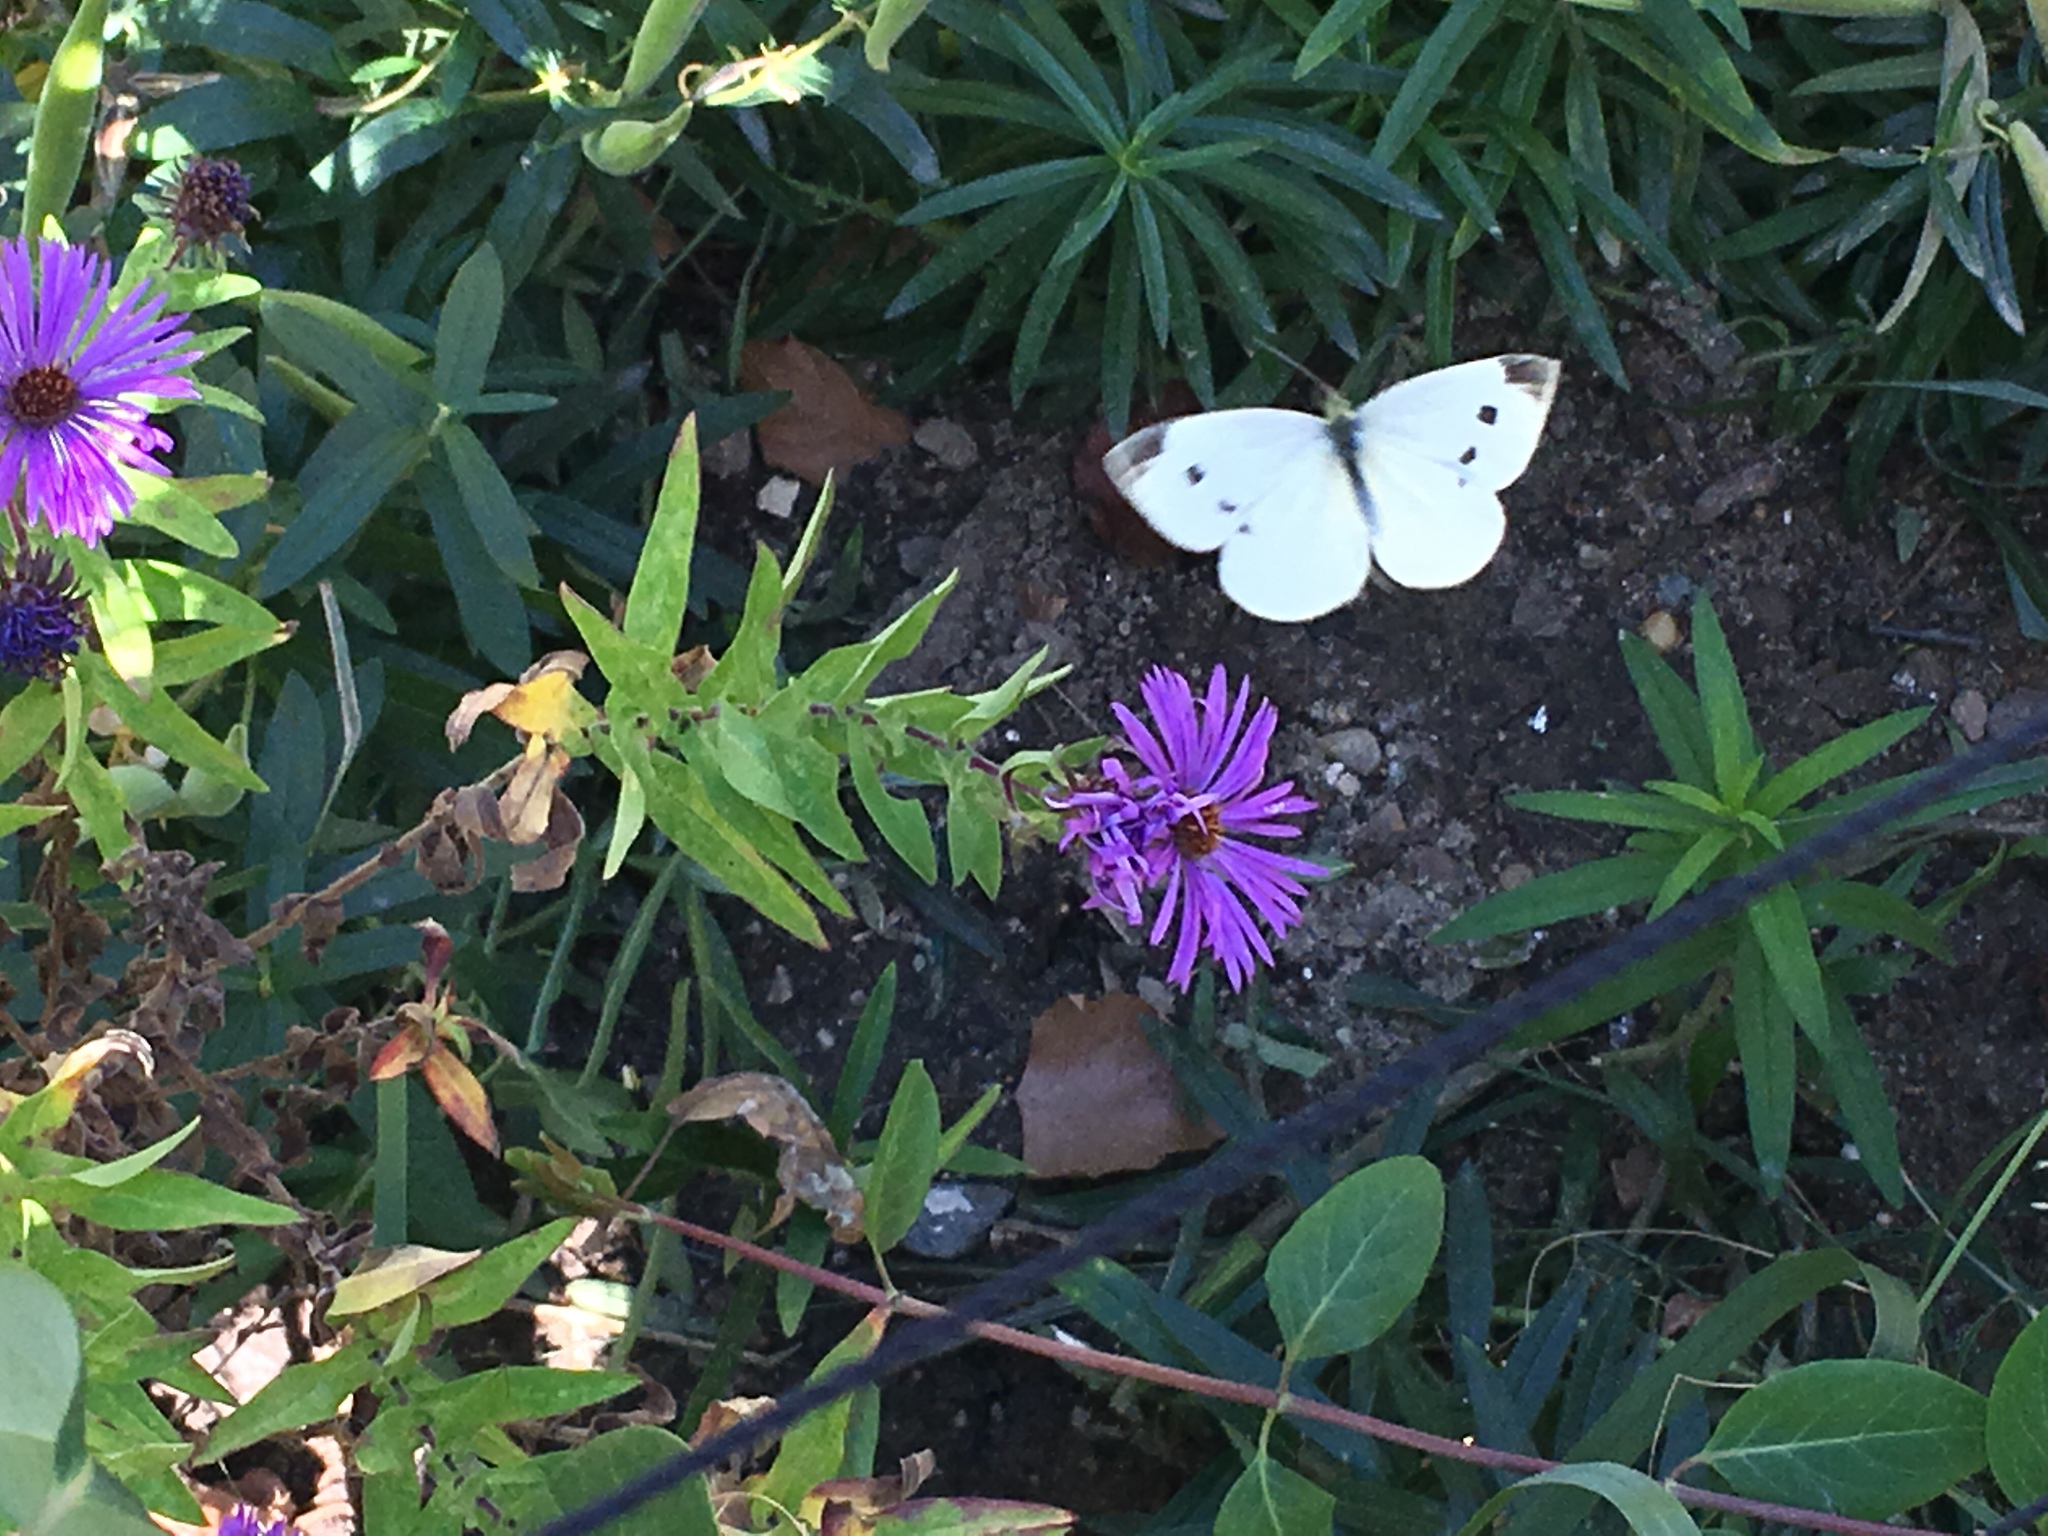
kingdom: Animalia
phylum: Arthropoda
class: Insecta
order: Lepidoptera
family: Pieridae
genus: Pieris
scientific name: Pieris rapae
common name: Small white
